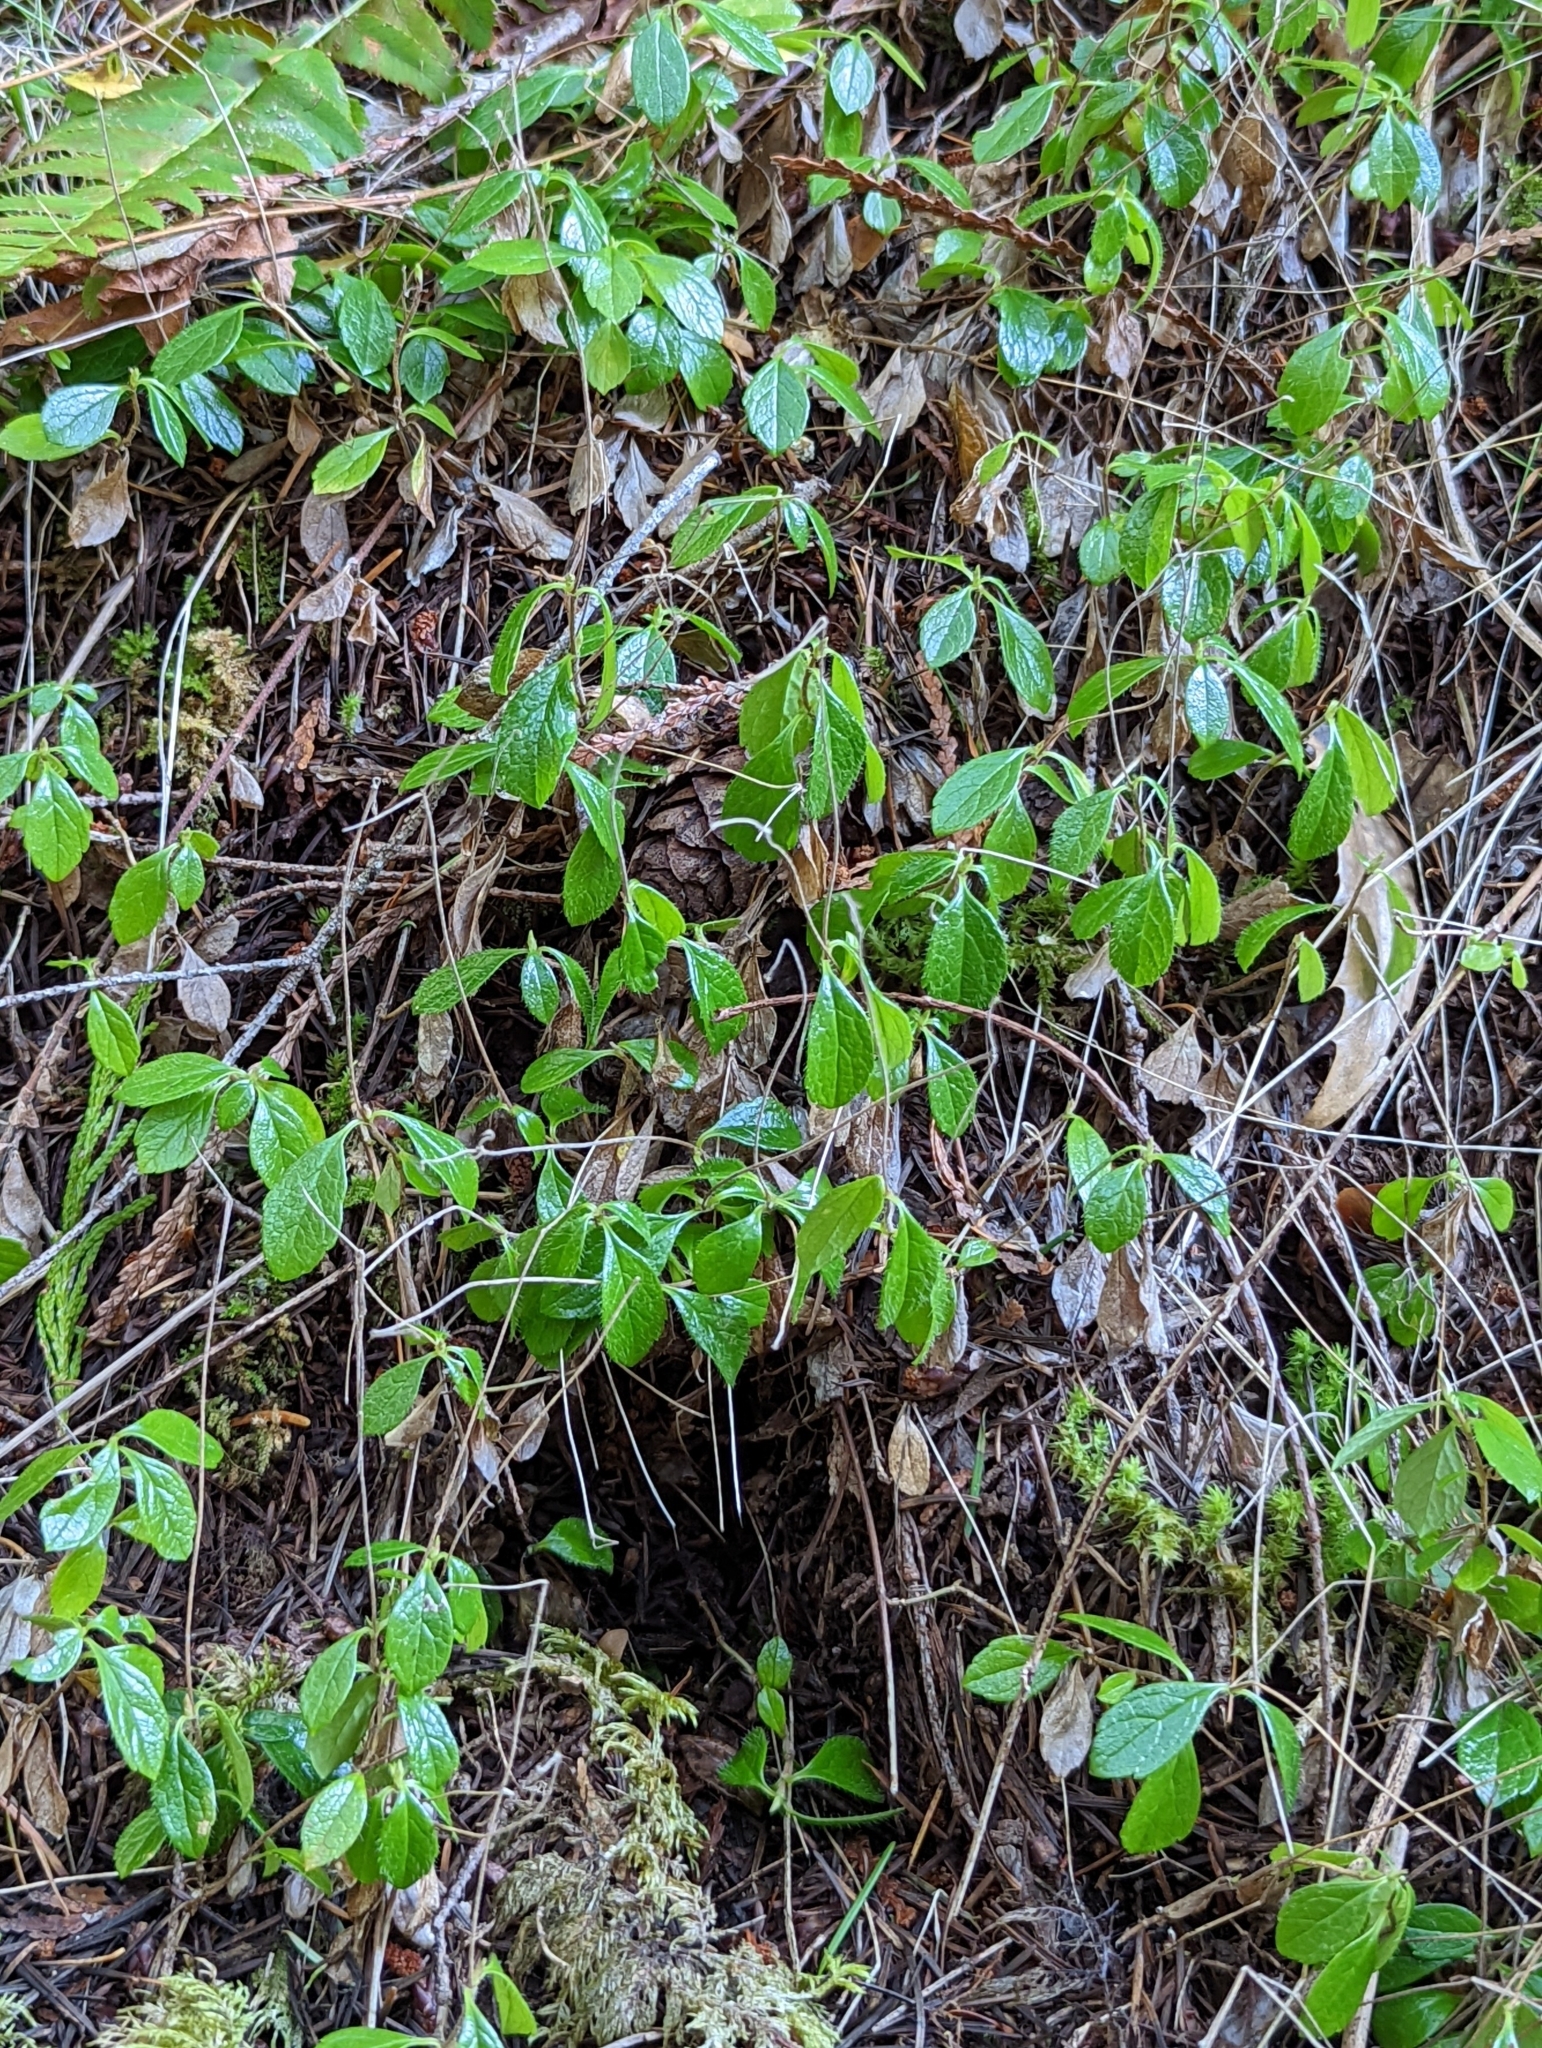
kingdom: Plantae
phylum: Tracheophyta
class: Magnoliopsida
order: Dipsacales
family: Caprifoliaceae
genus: Linnaea
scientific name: Linnaea borealis
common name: Twinflower
